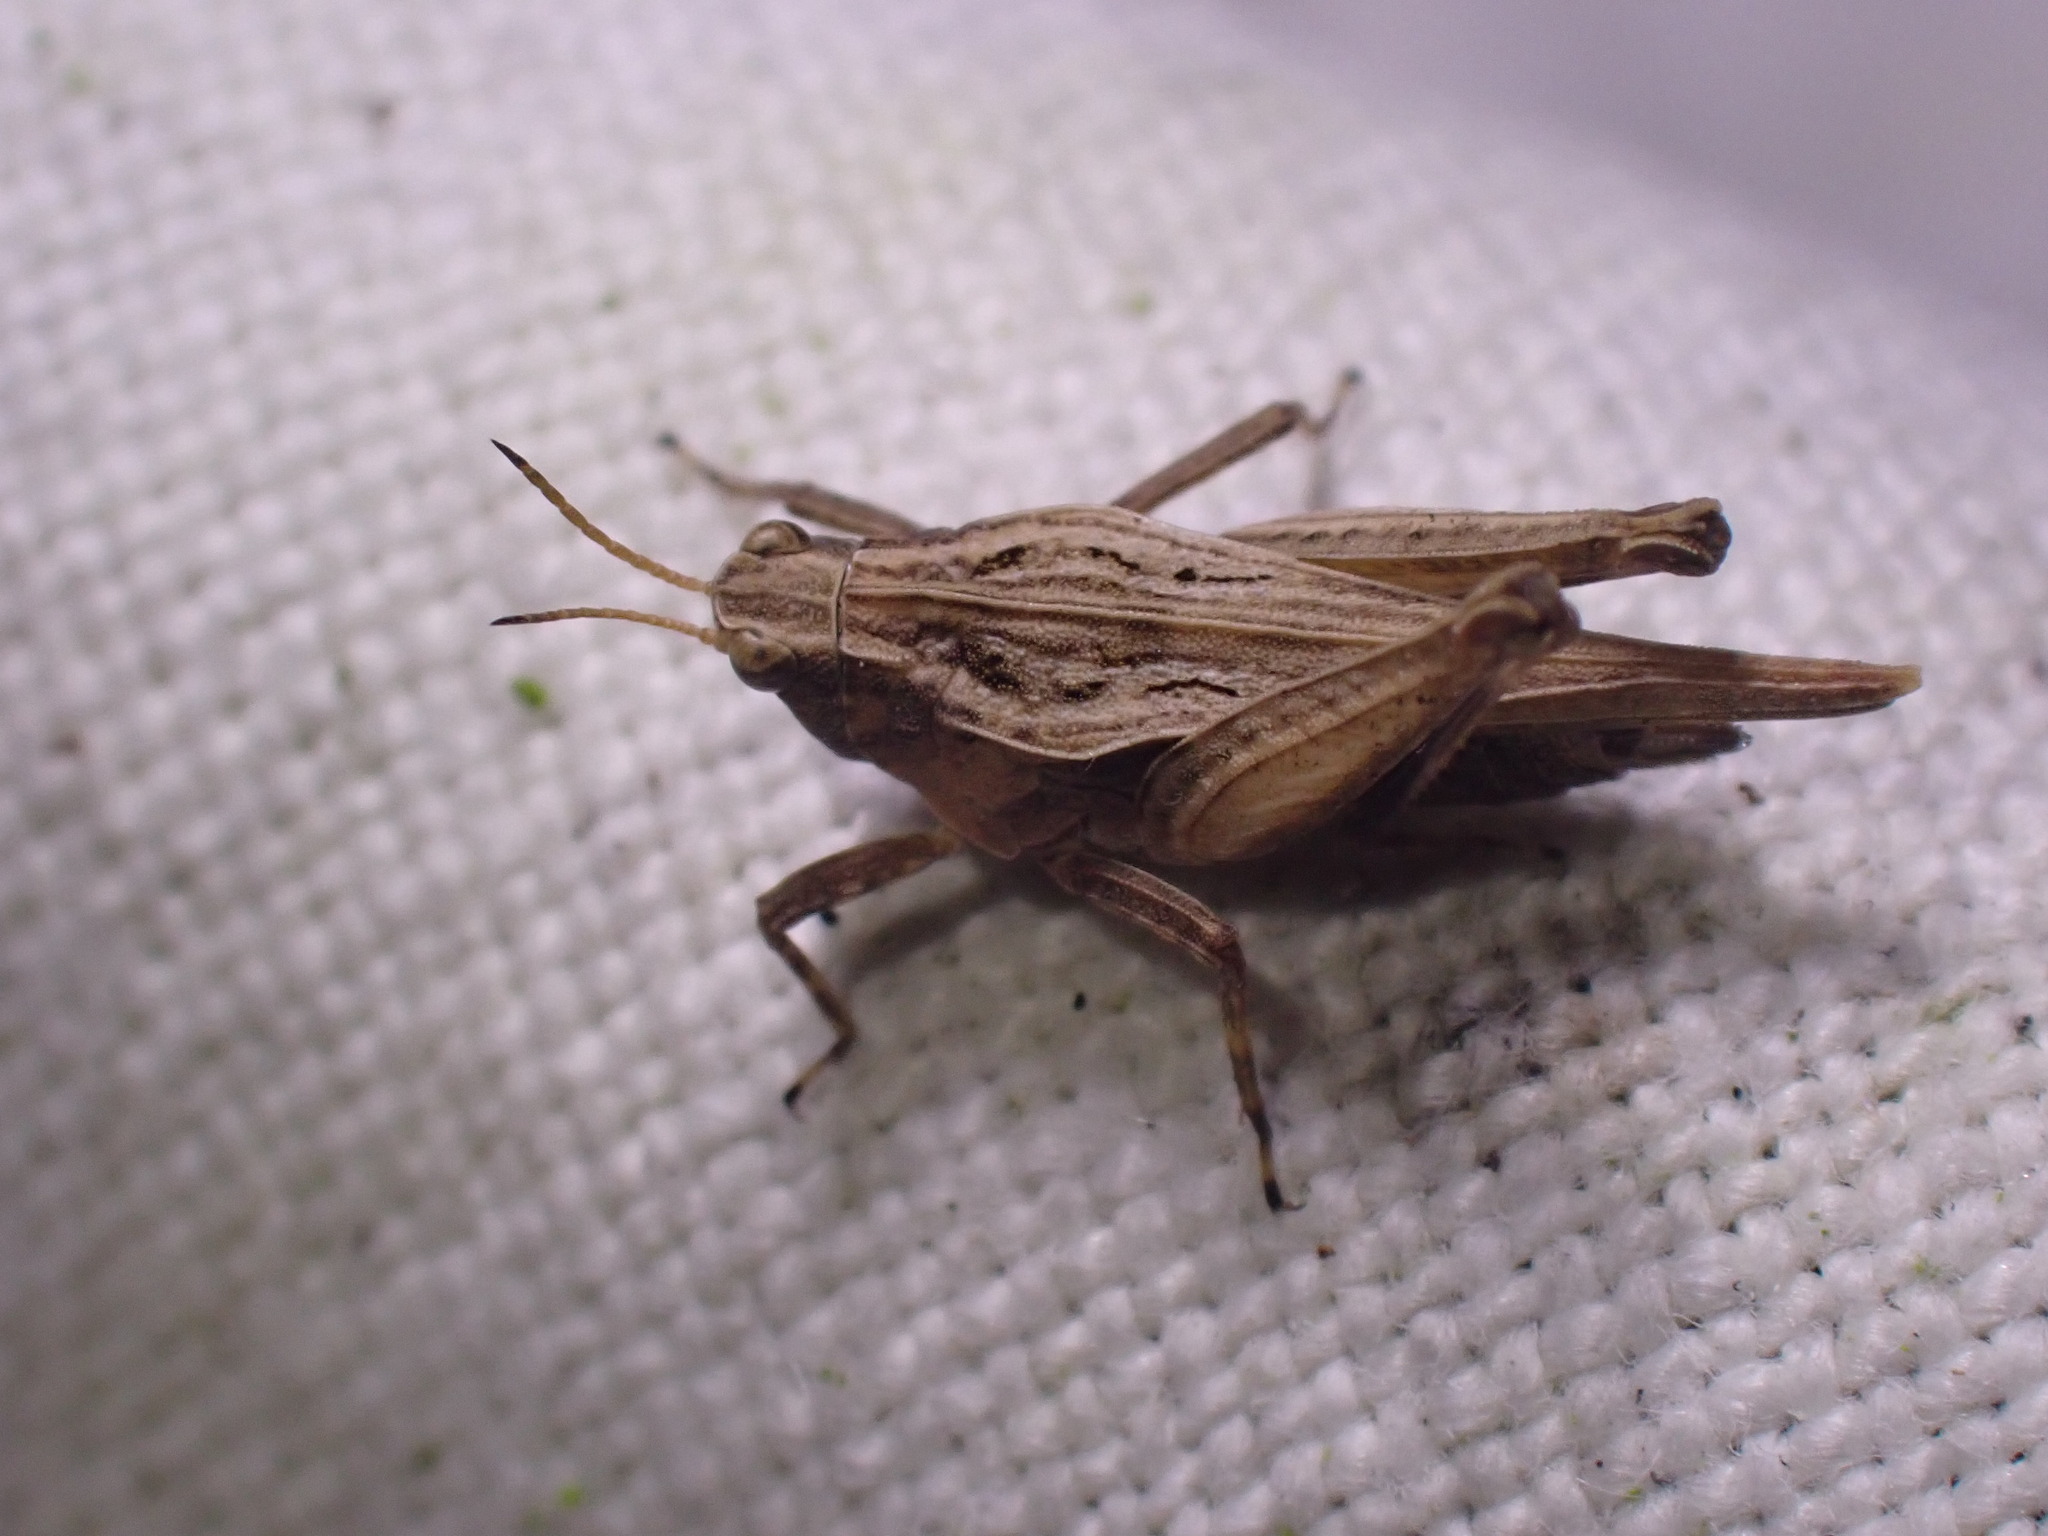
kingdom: Animalia
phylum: Arthropoda
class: Insecta
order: Orthoptera
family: Tetrigidae
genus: Tetrix
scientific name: Tetrix subulata
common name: Slender ground-hopper
